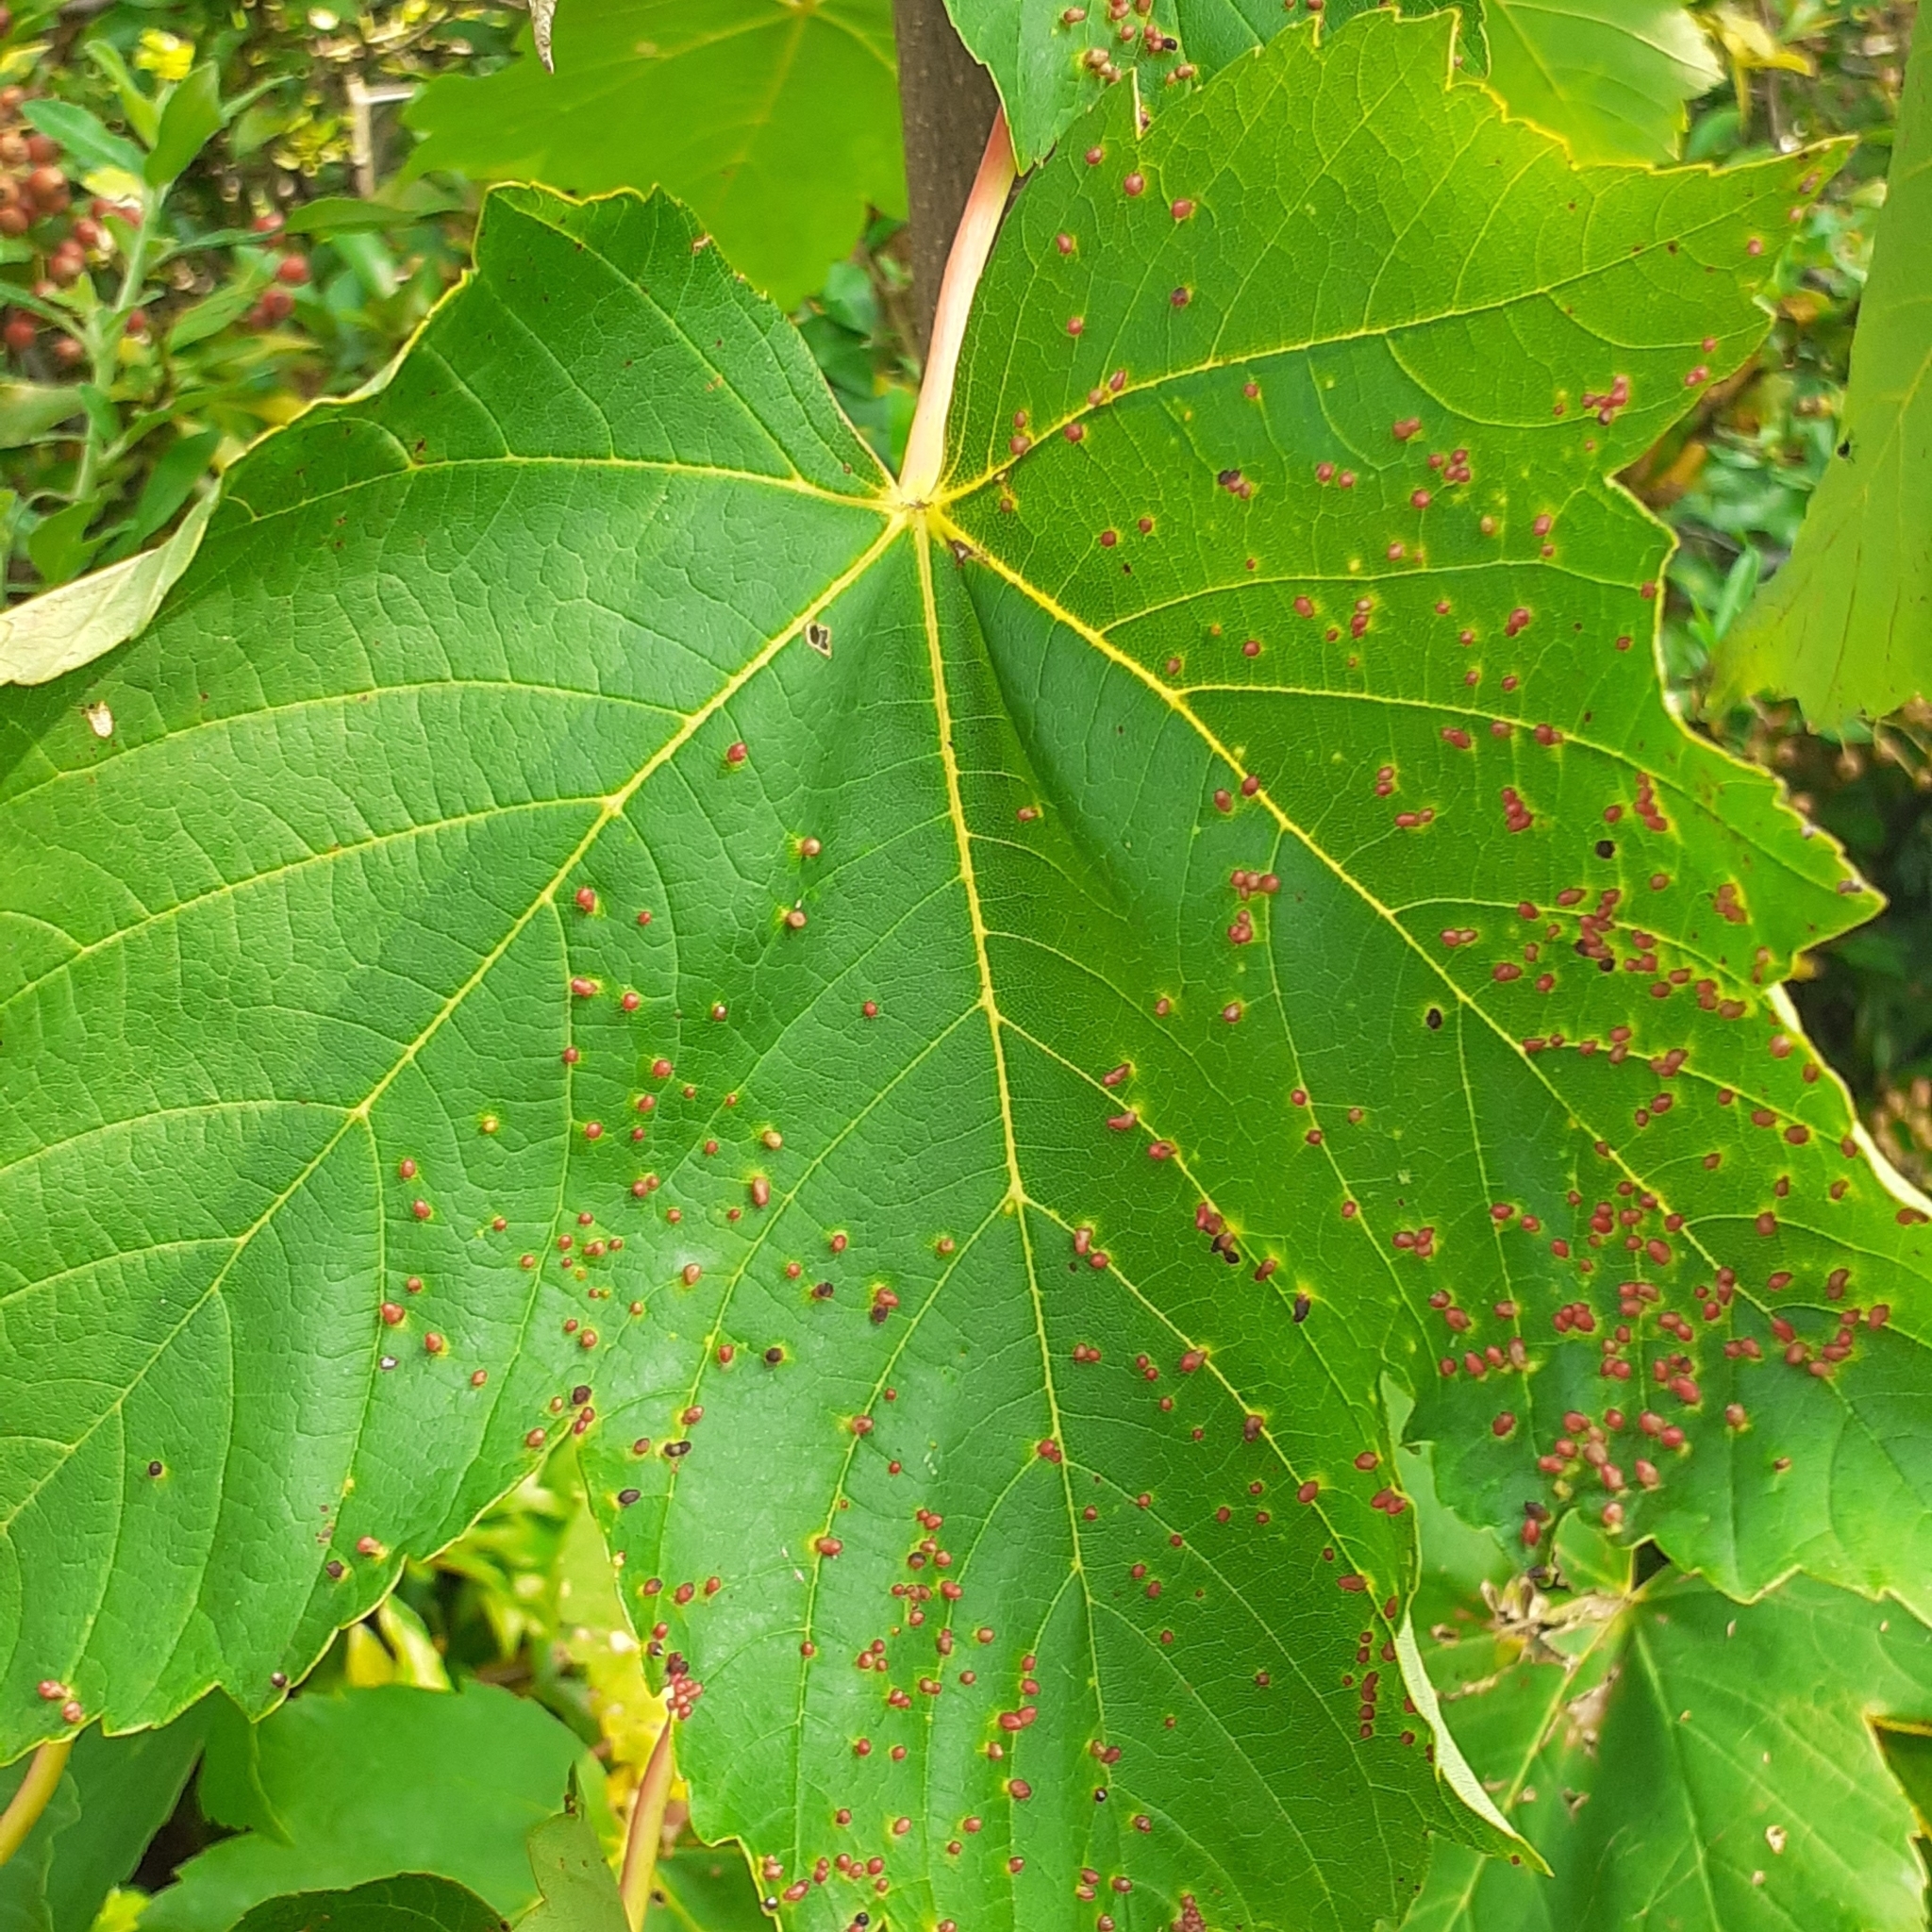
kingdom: Animalia
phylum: Arthropoda
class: Arachnida
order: Trombidiformes
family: Eriophyidae
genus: Aceria
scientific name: Aceria cephaloneus
